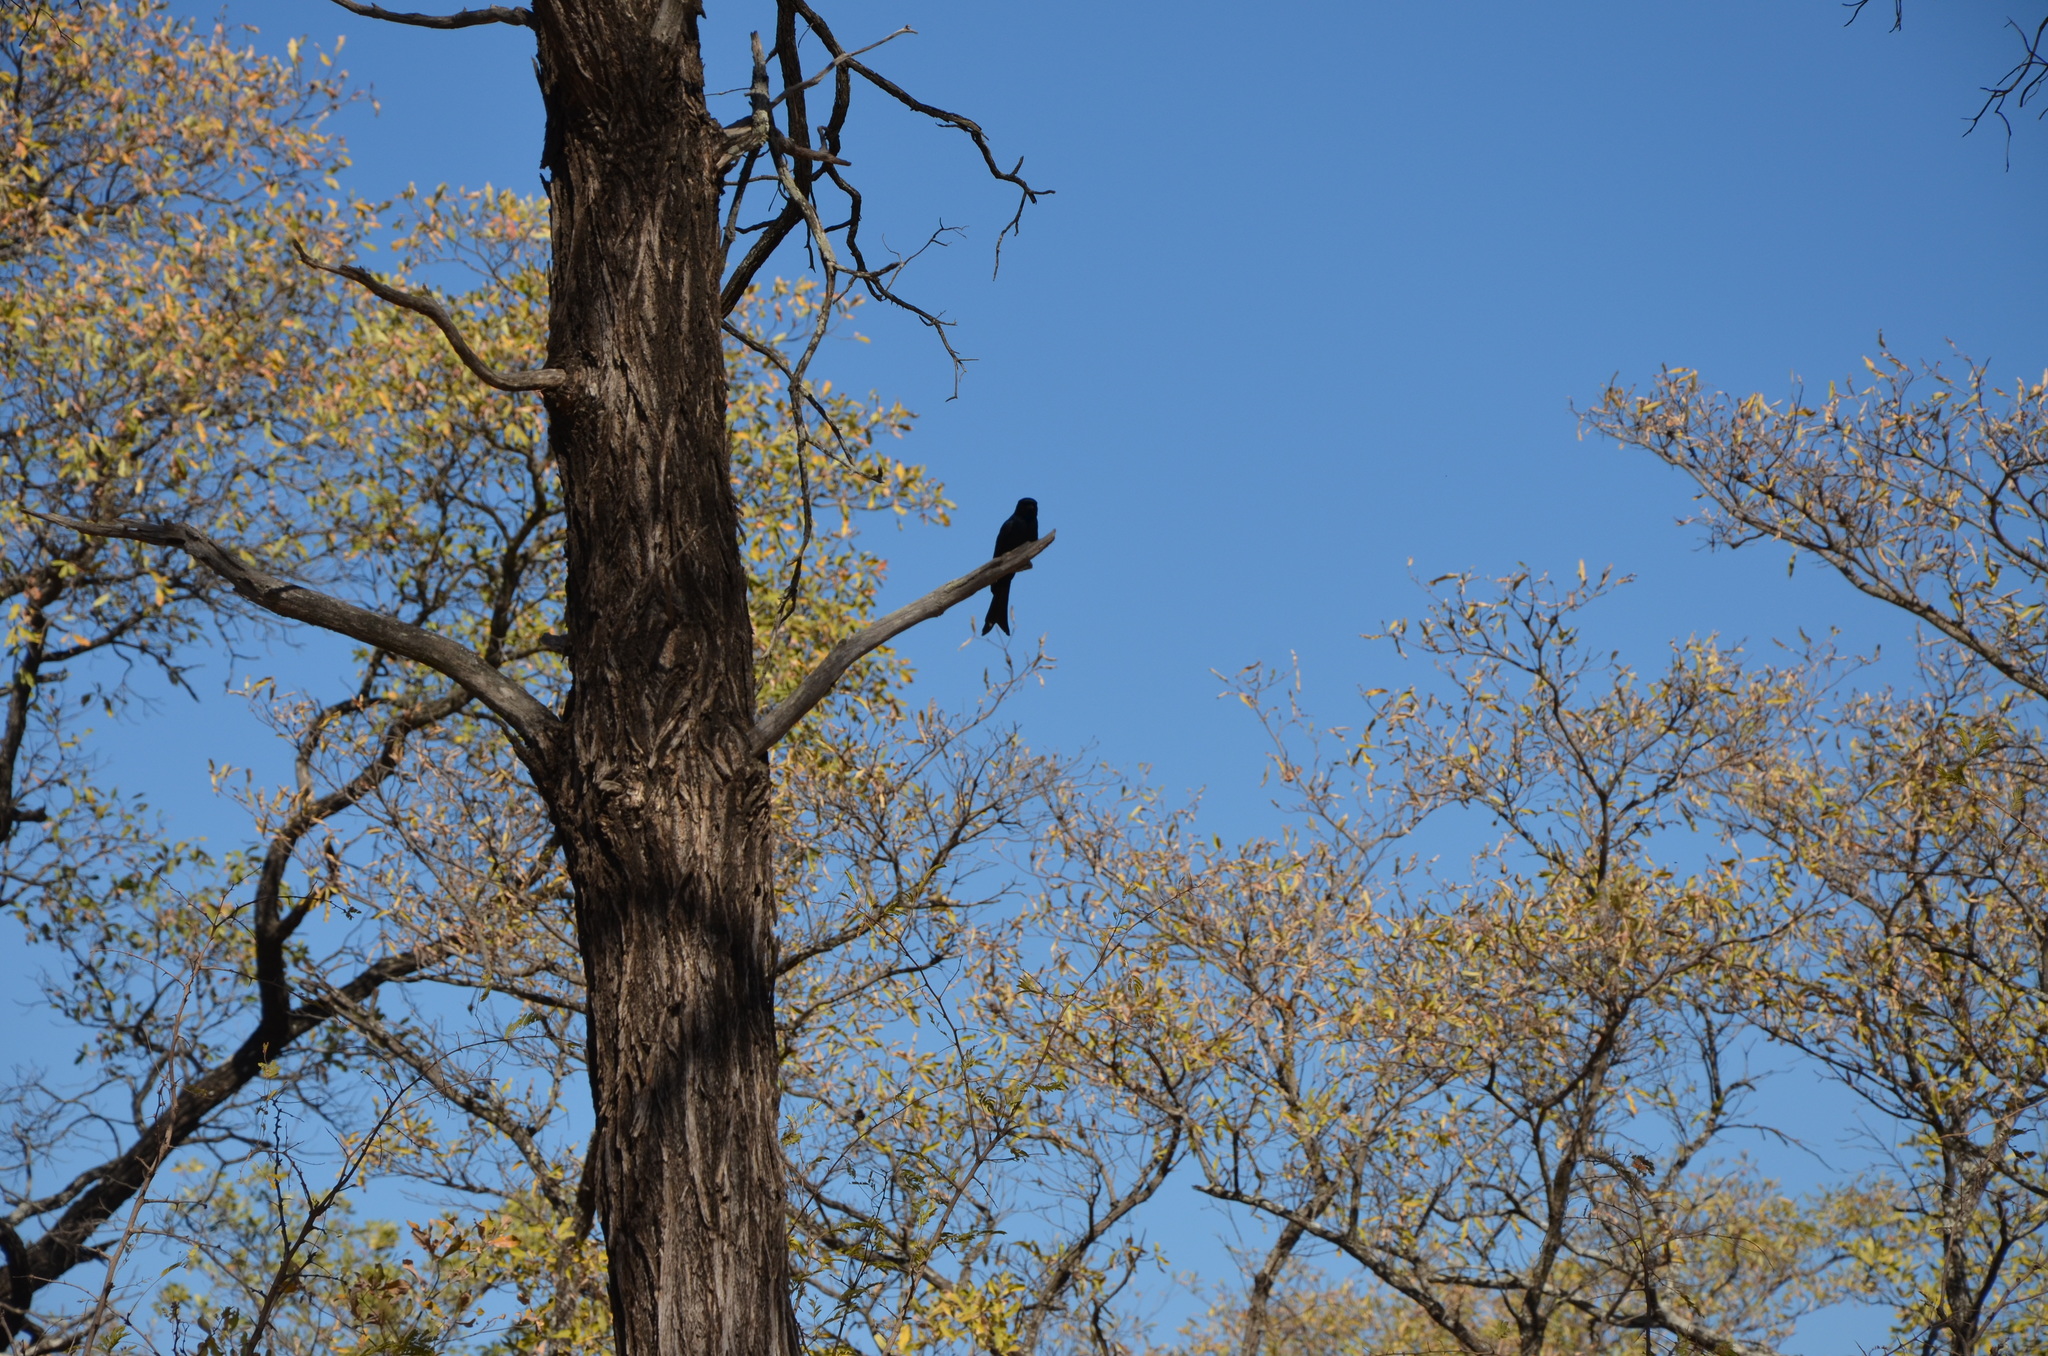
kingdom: Animalia
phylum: Chordata
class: Aves
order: Passeriformes
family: Dicruridae
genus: Dicrurus
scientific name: Dicrurus adsimilis
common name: Fork-tailed drongo
